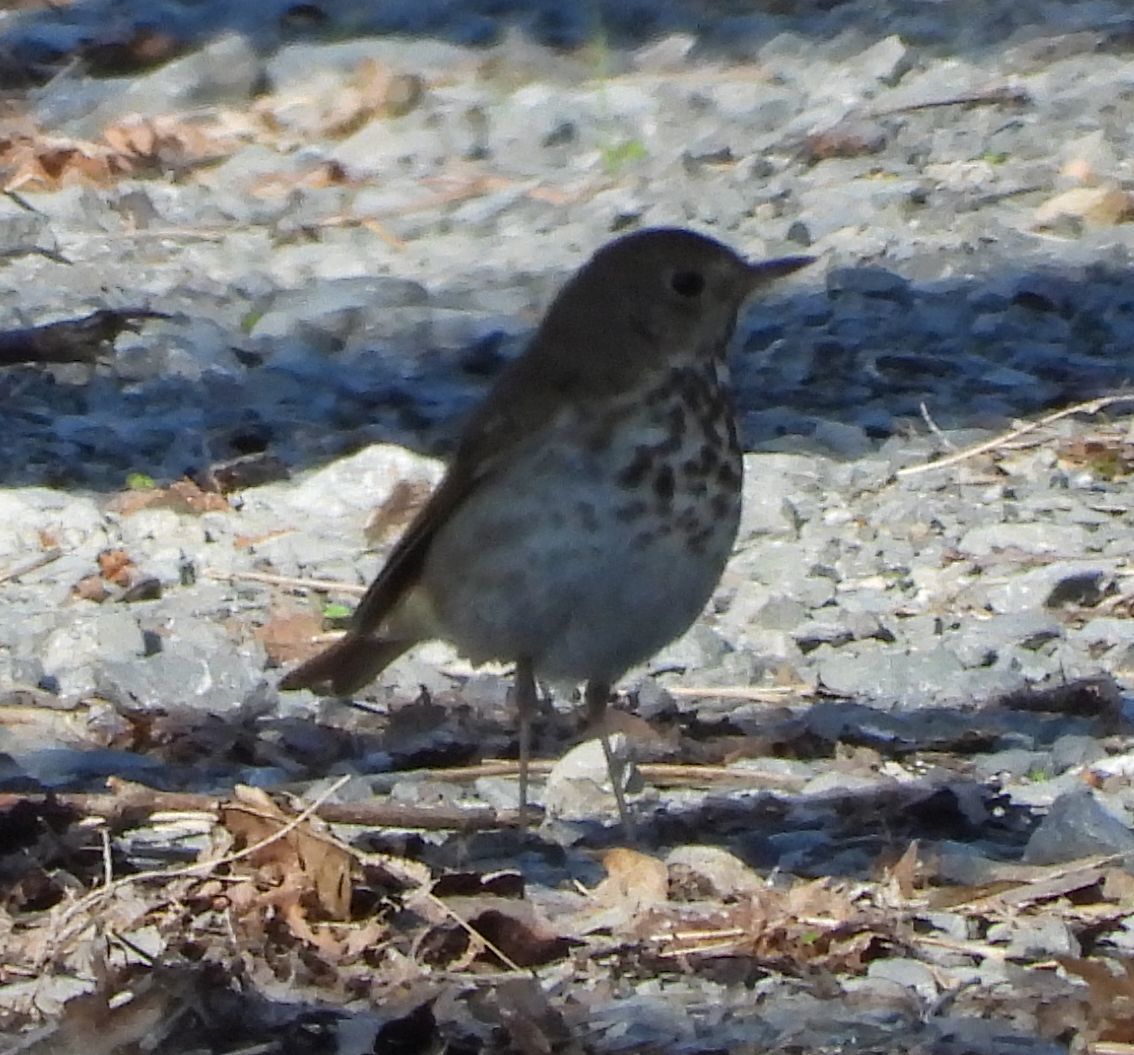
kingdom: Animalia
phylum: Chordata
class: Aves
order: Passeriformes
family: Turdidae
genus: Catharus
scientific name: Catharus guttatus
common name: Hermit thrush
